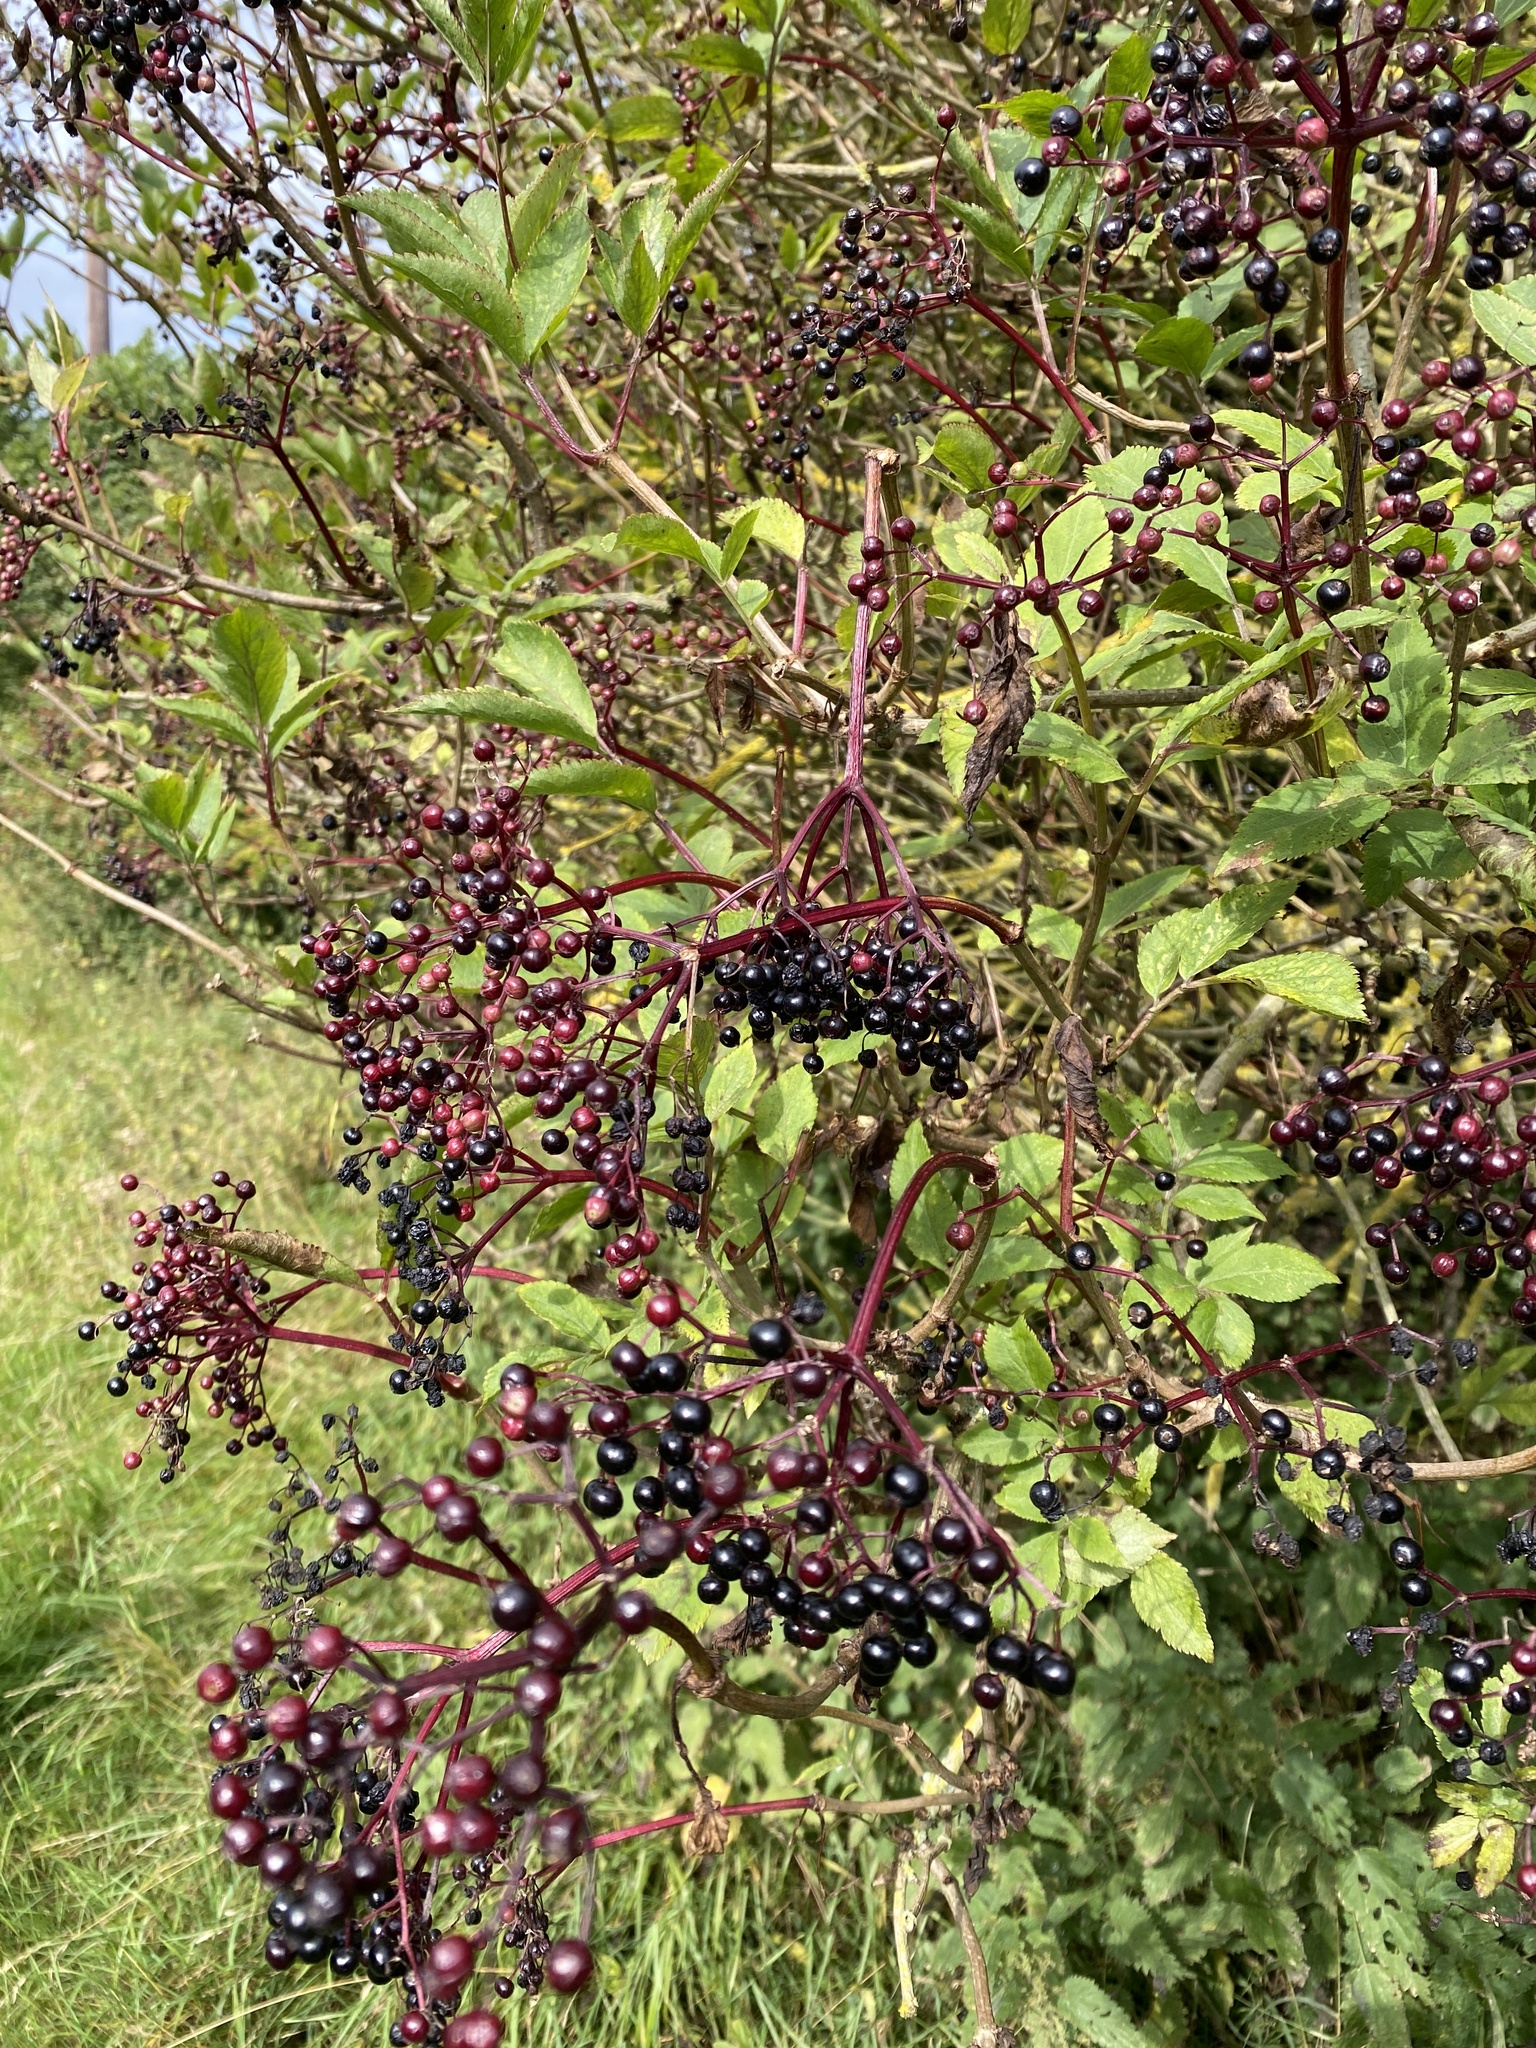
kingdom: Plantae
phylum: Tracheophyta
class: Magnoliopsida
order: Dipsacales
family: Viburnaceae
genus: Sambucus
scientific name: Sambucus nigra
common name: Elder
